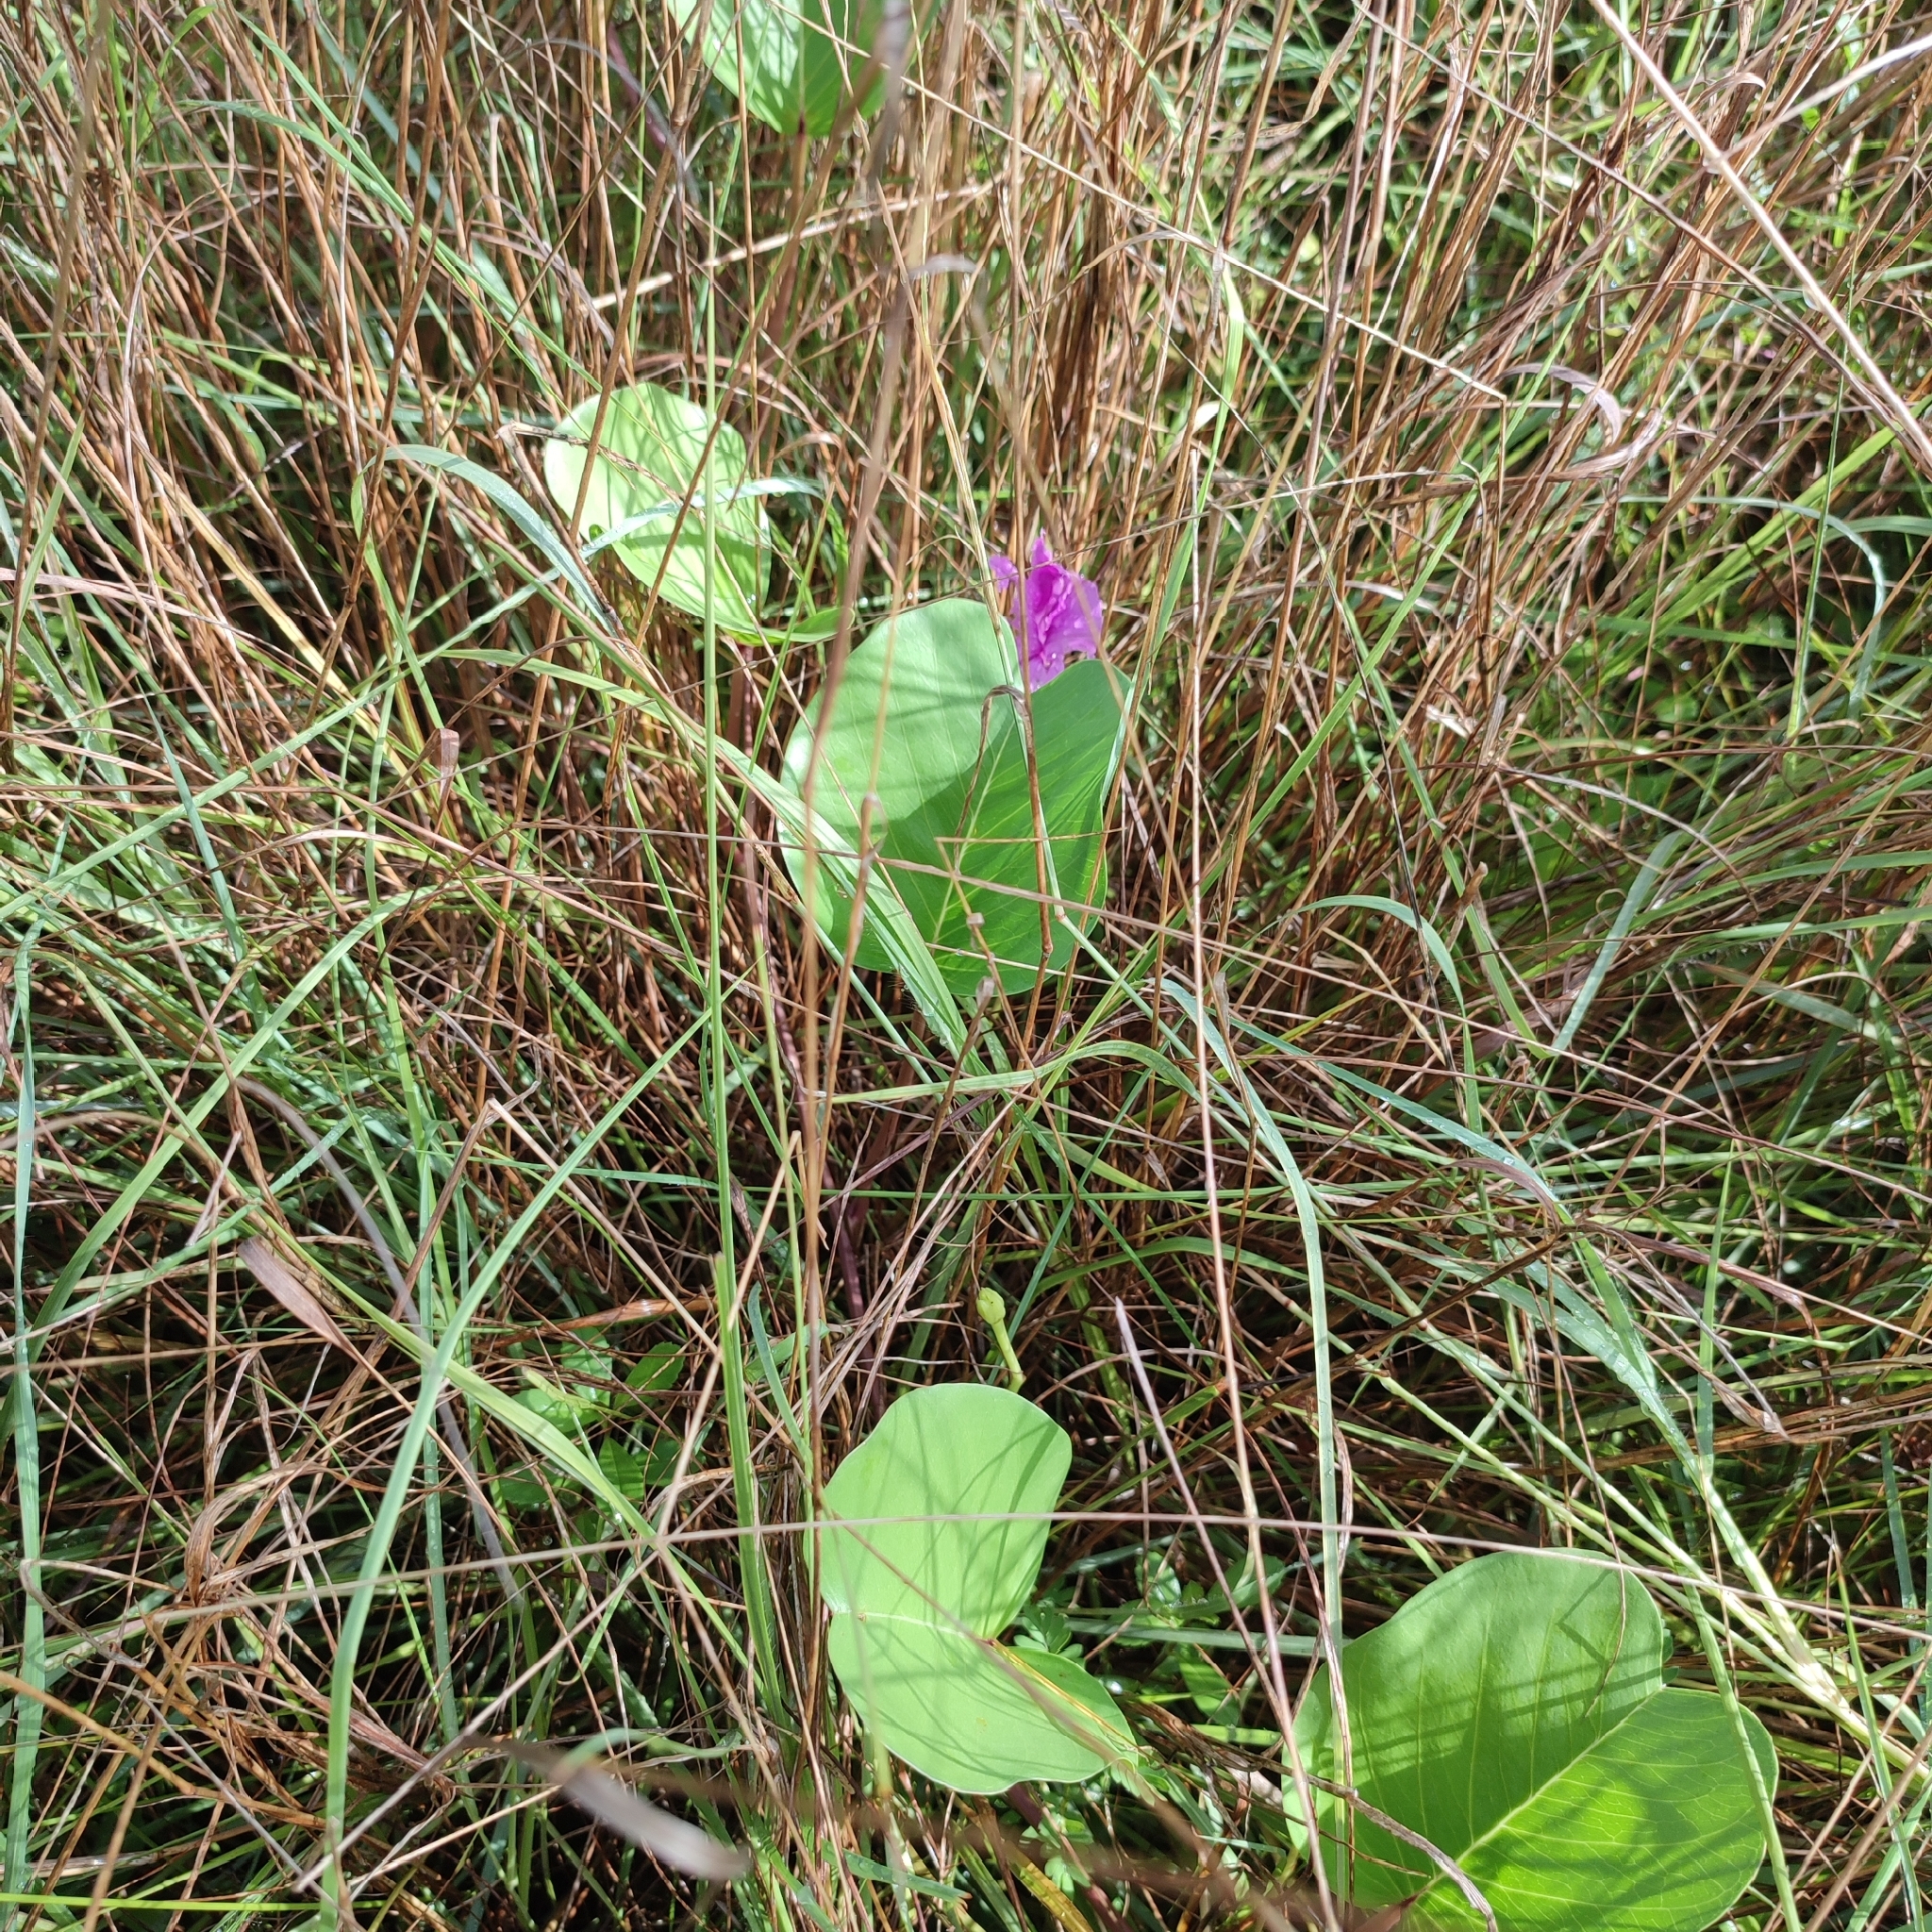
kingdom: Plantae
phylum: Tracheophyta
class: Magnoliopsida
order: Solanales
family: Convolvulaceae
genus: Ipomoea
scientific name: Ipomoea pes-caprae
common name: Beach morning glory
